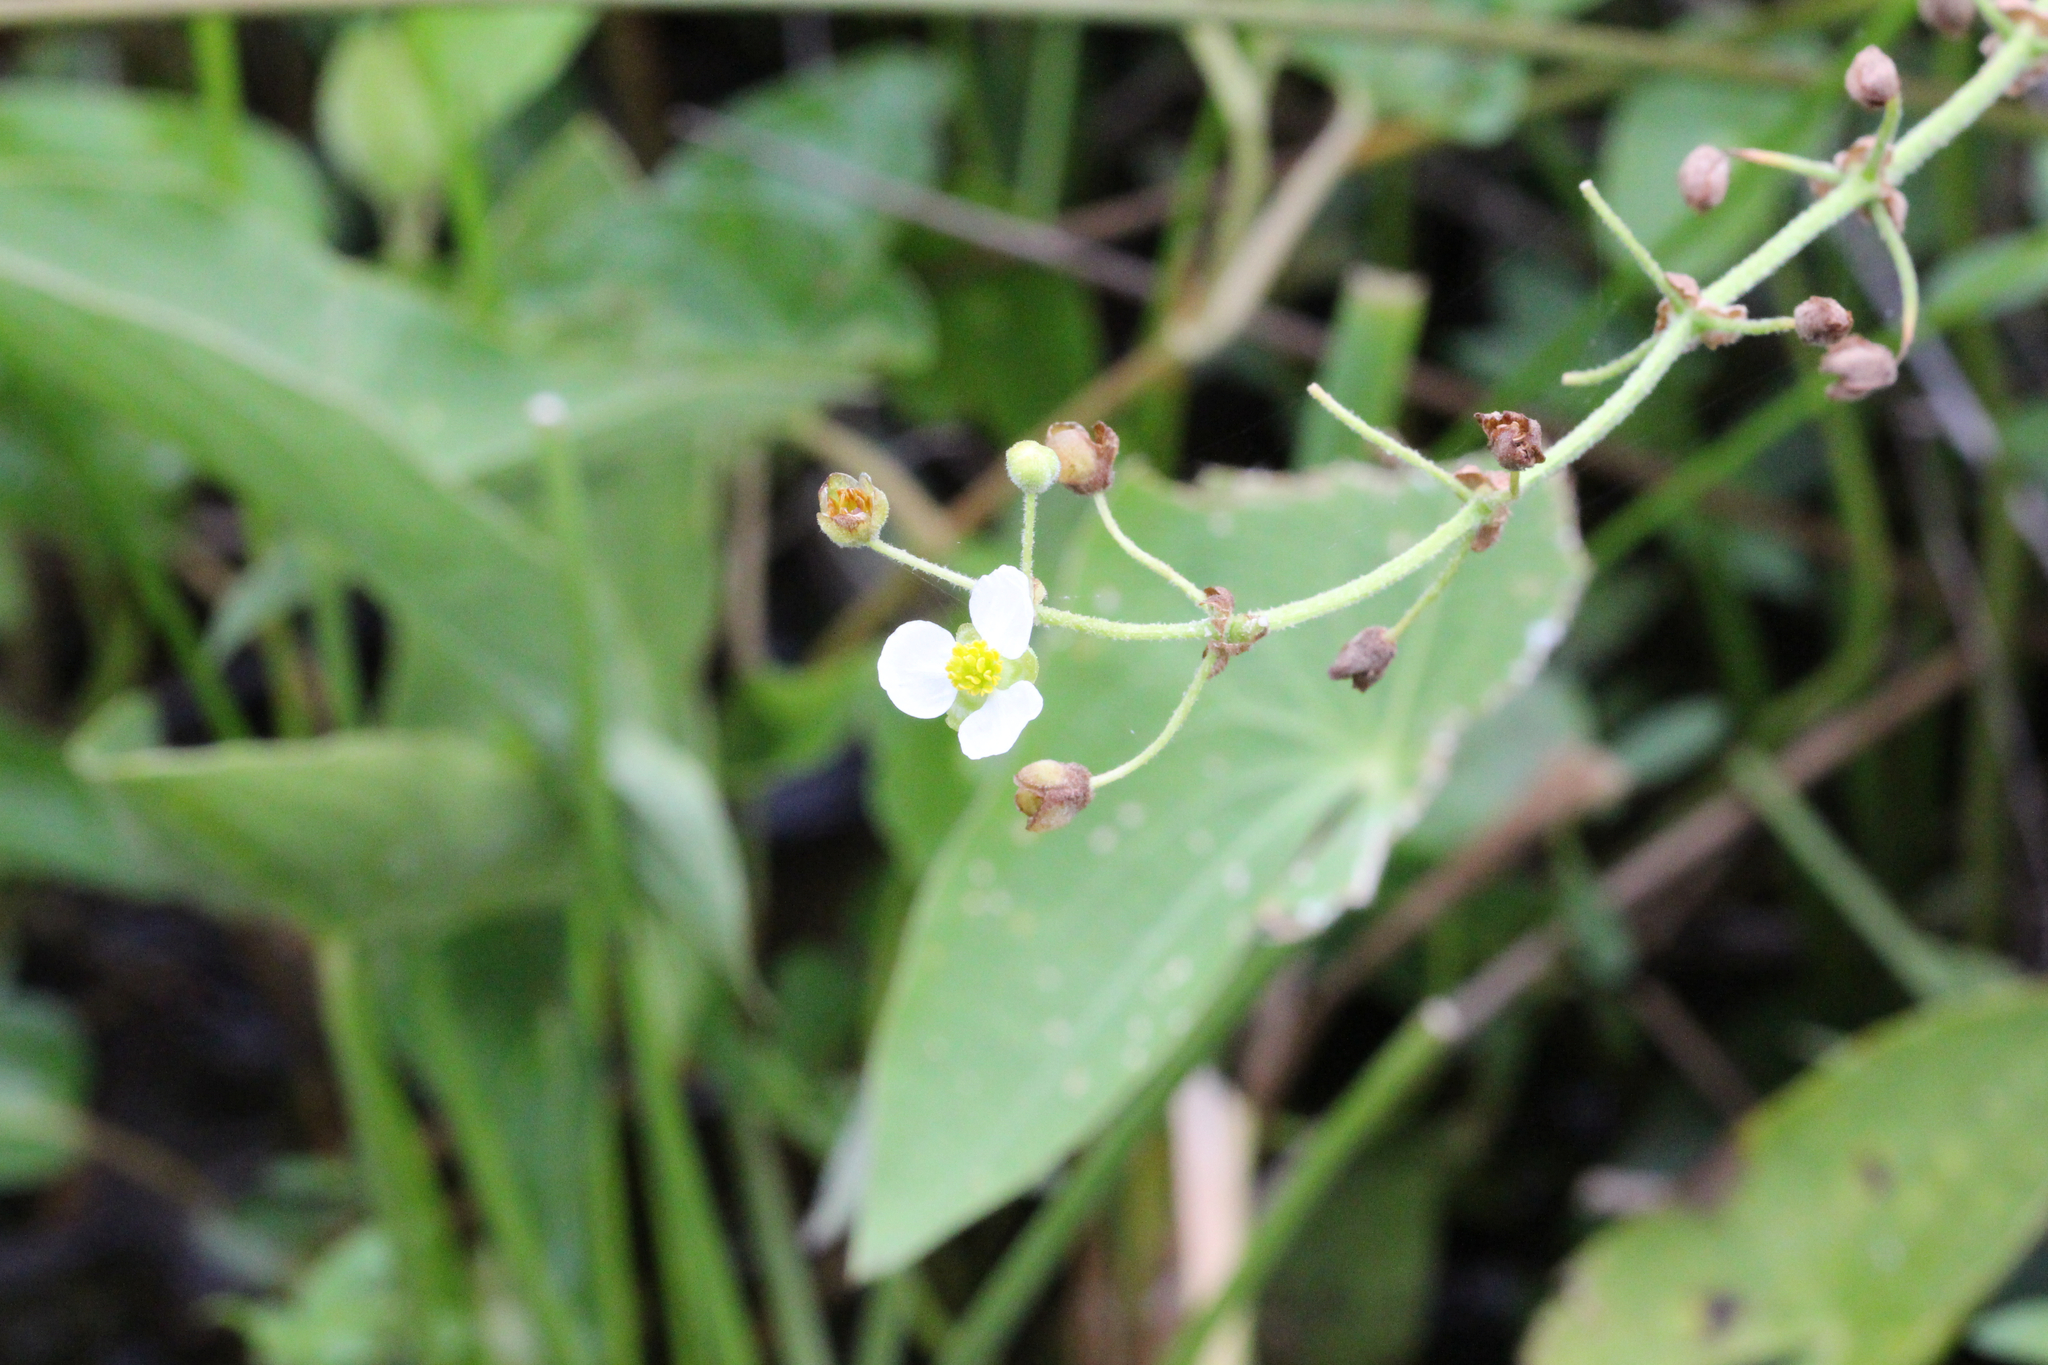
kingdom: Plantae
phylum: Tracheophyta
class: Liliopsida
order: Alismatales
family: Alismataceae
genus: Sagittaria
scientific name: Sagittaria latifolia
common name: Duck-potato
